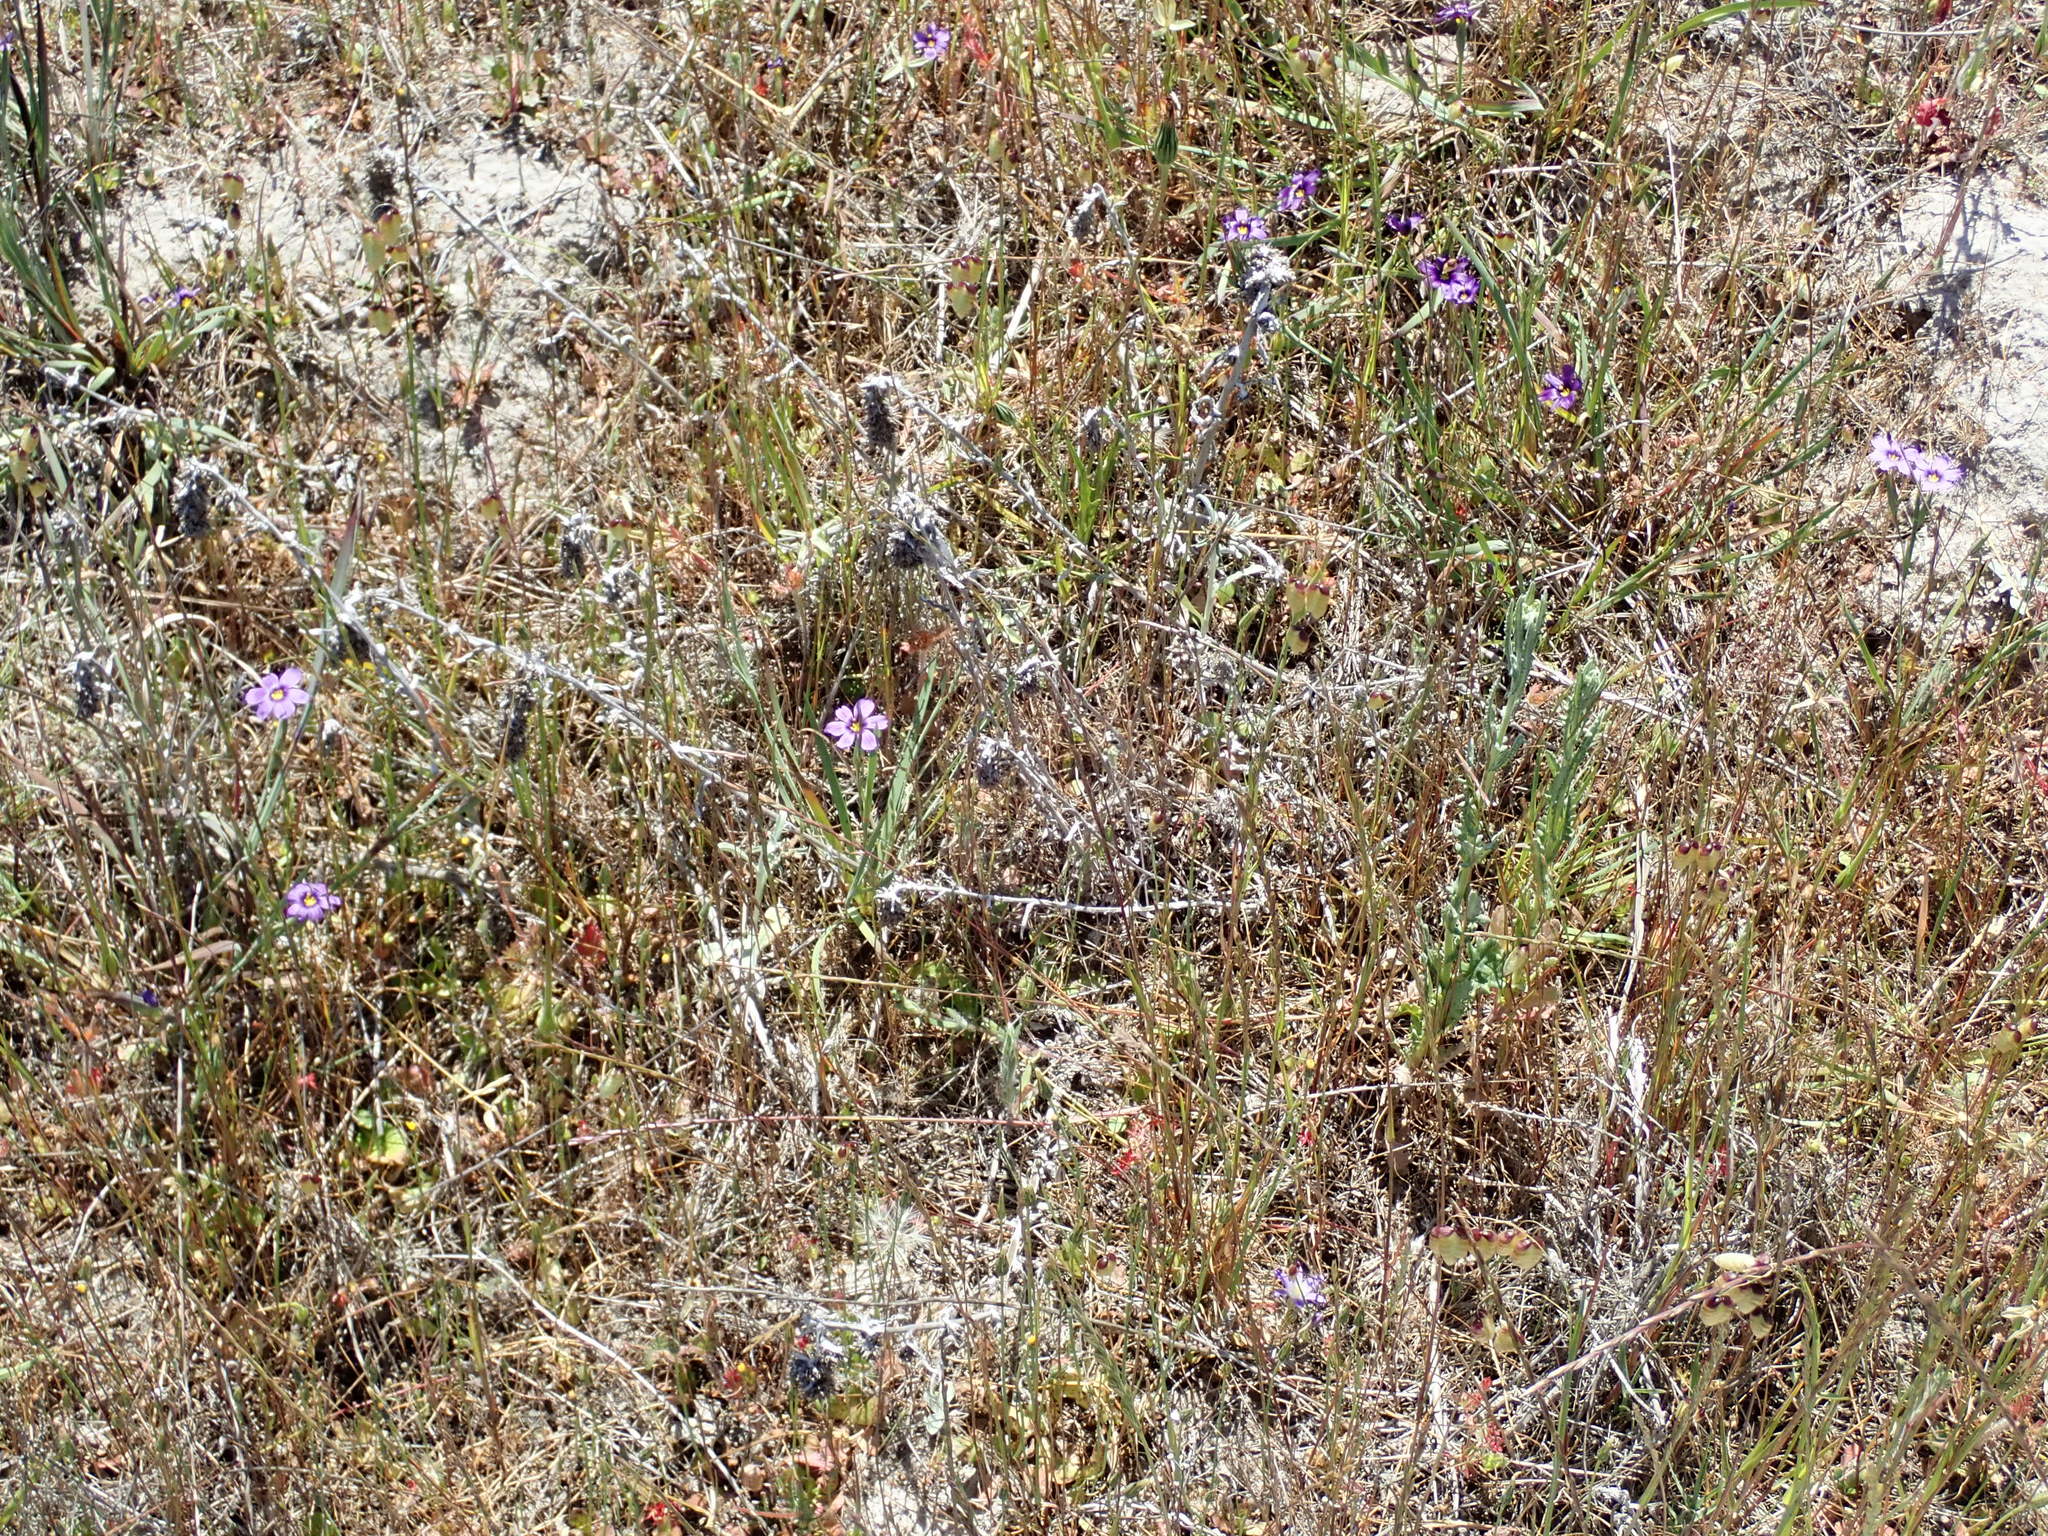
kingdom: Plantae
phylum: Tracheophyta
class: Liliopsida
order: Asparagales
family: Iridaceae
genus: Sisyrinchium
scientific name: Sisyrinchium bellum
